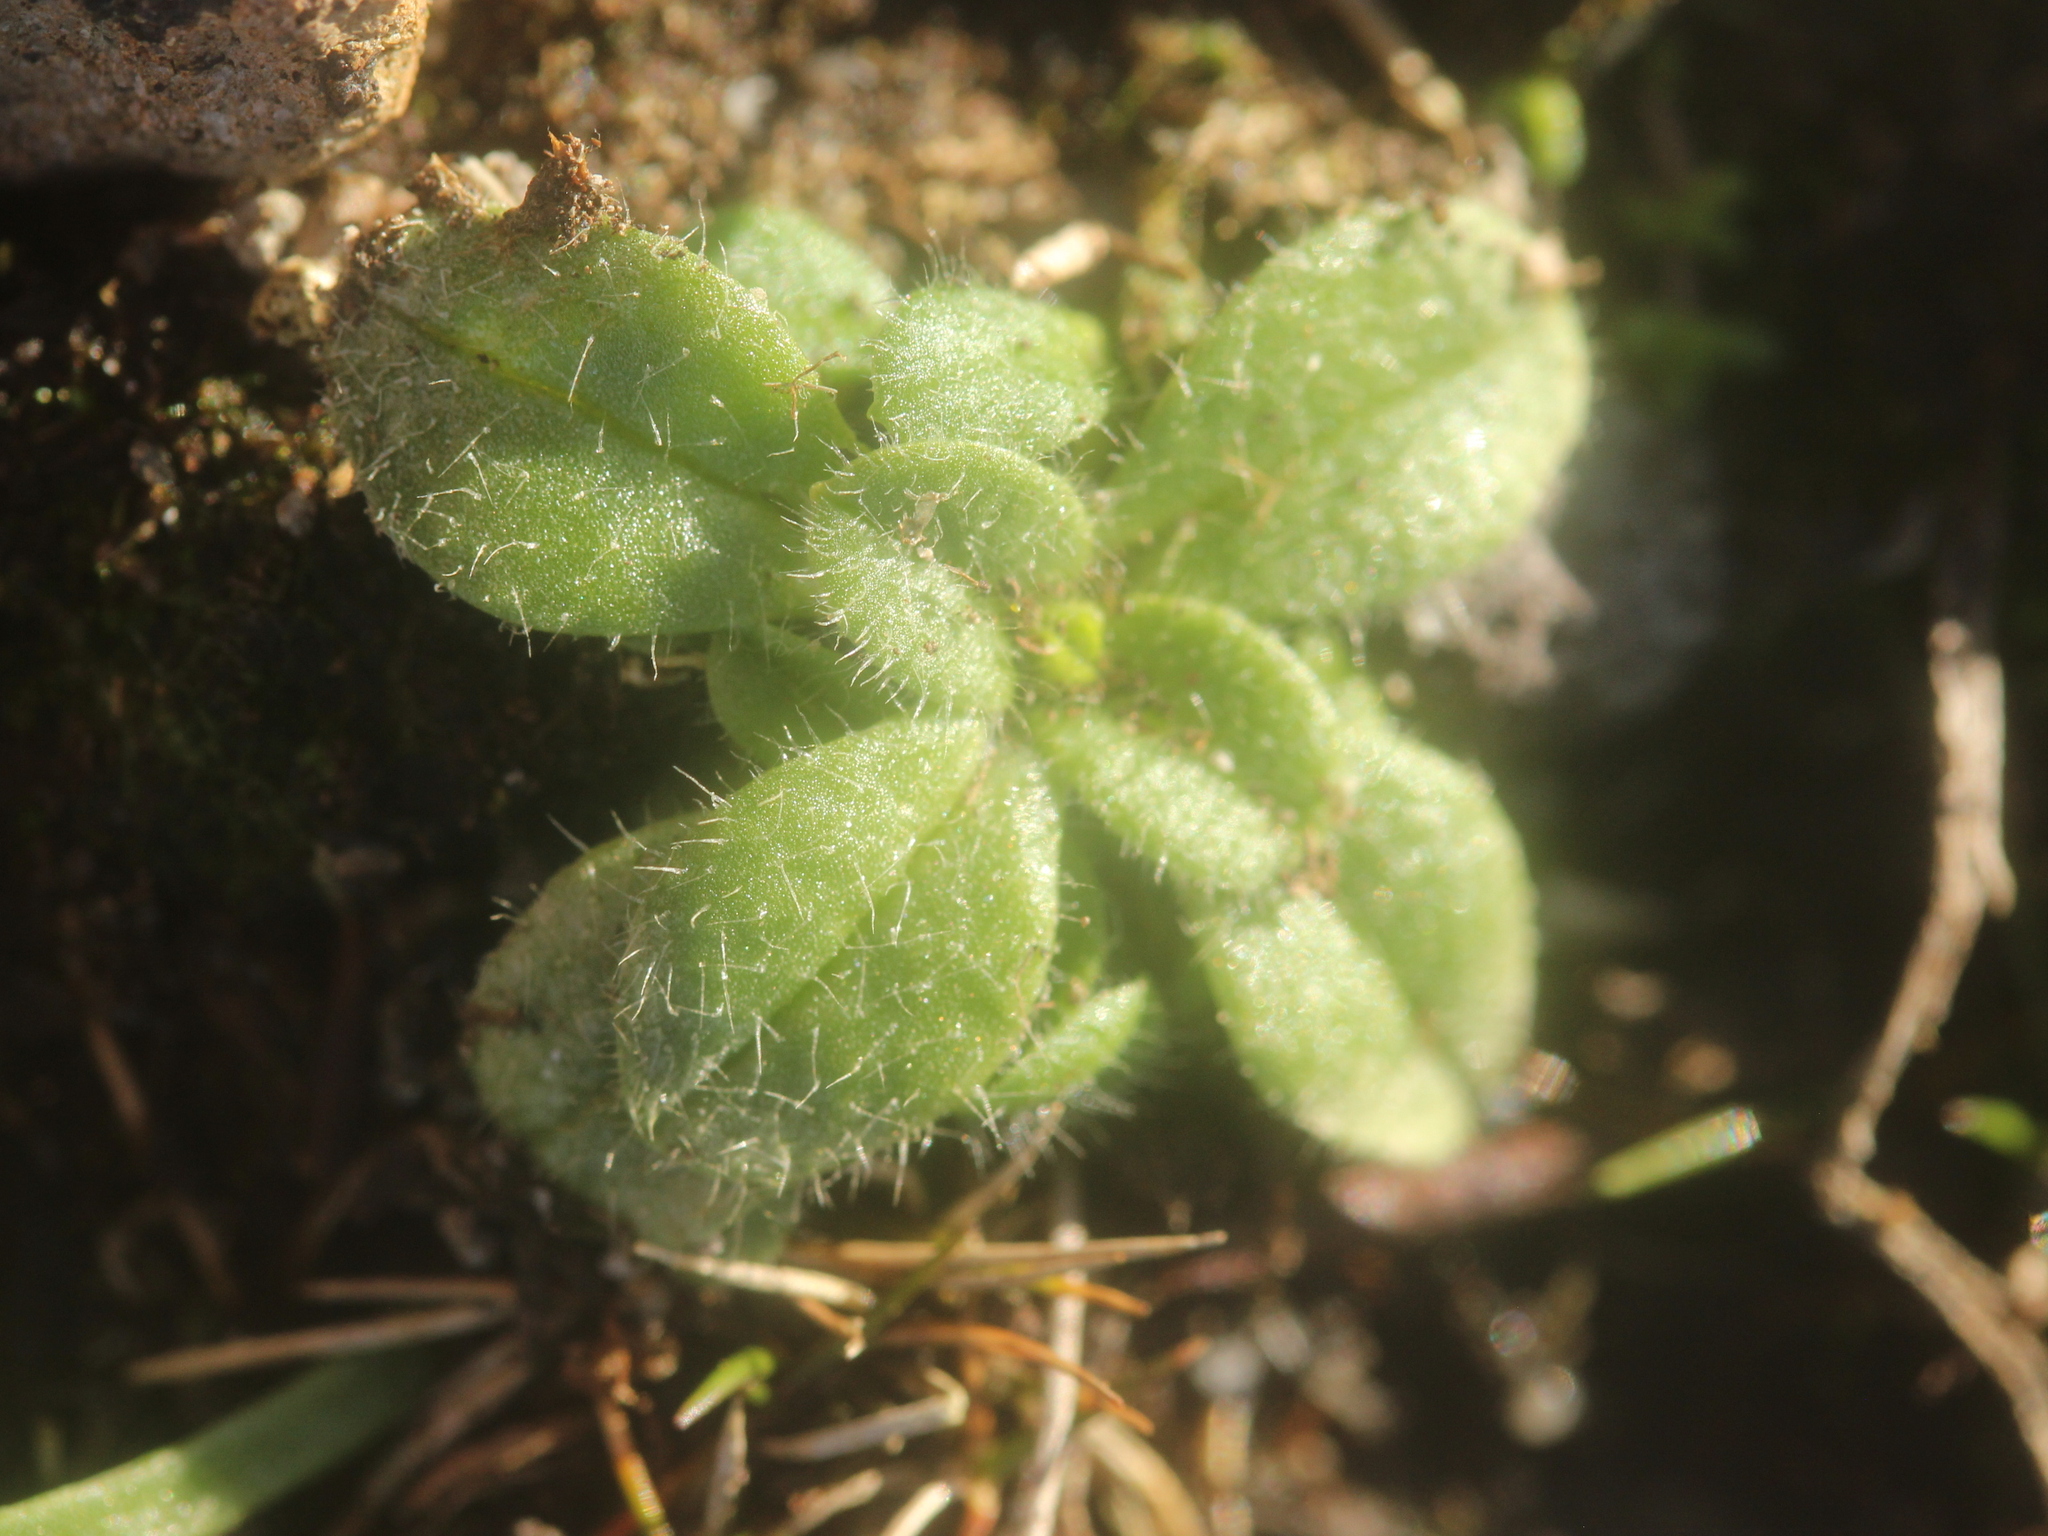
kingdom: Plantae
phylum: Tracheophyta
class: Magnoliopsida
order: Caryophyllales
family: Caryophyllaceae
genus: Cerastium
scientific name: Cerastium glomeratum
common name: Sticky chickweed
